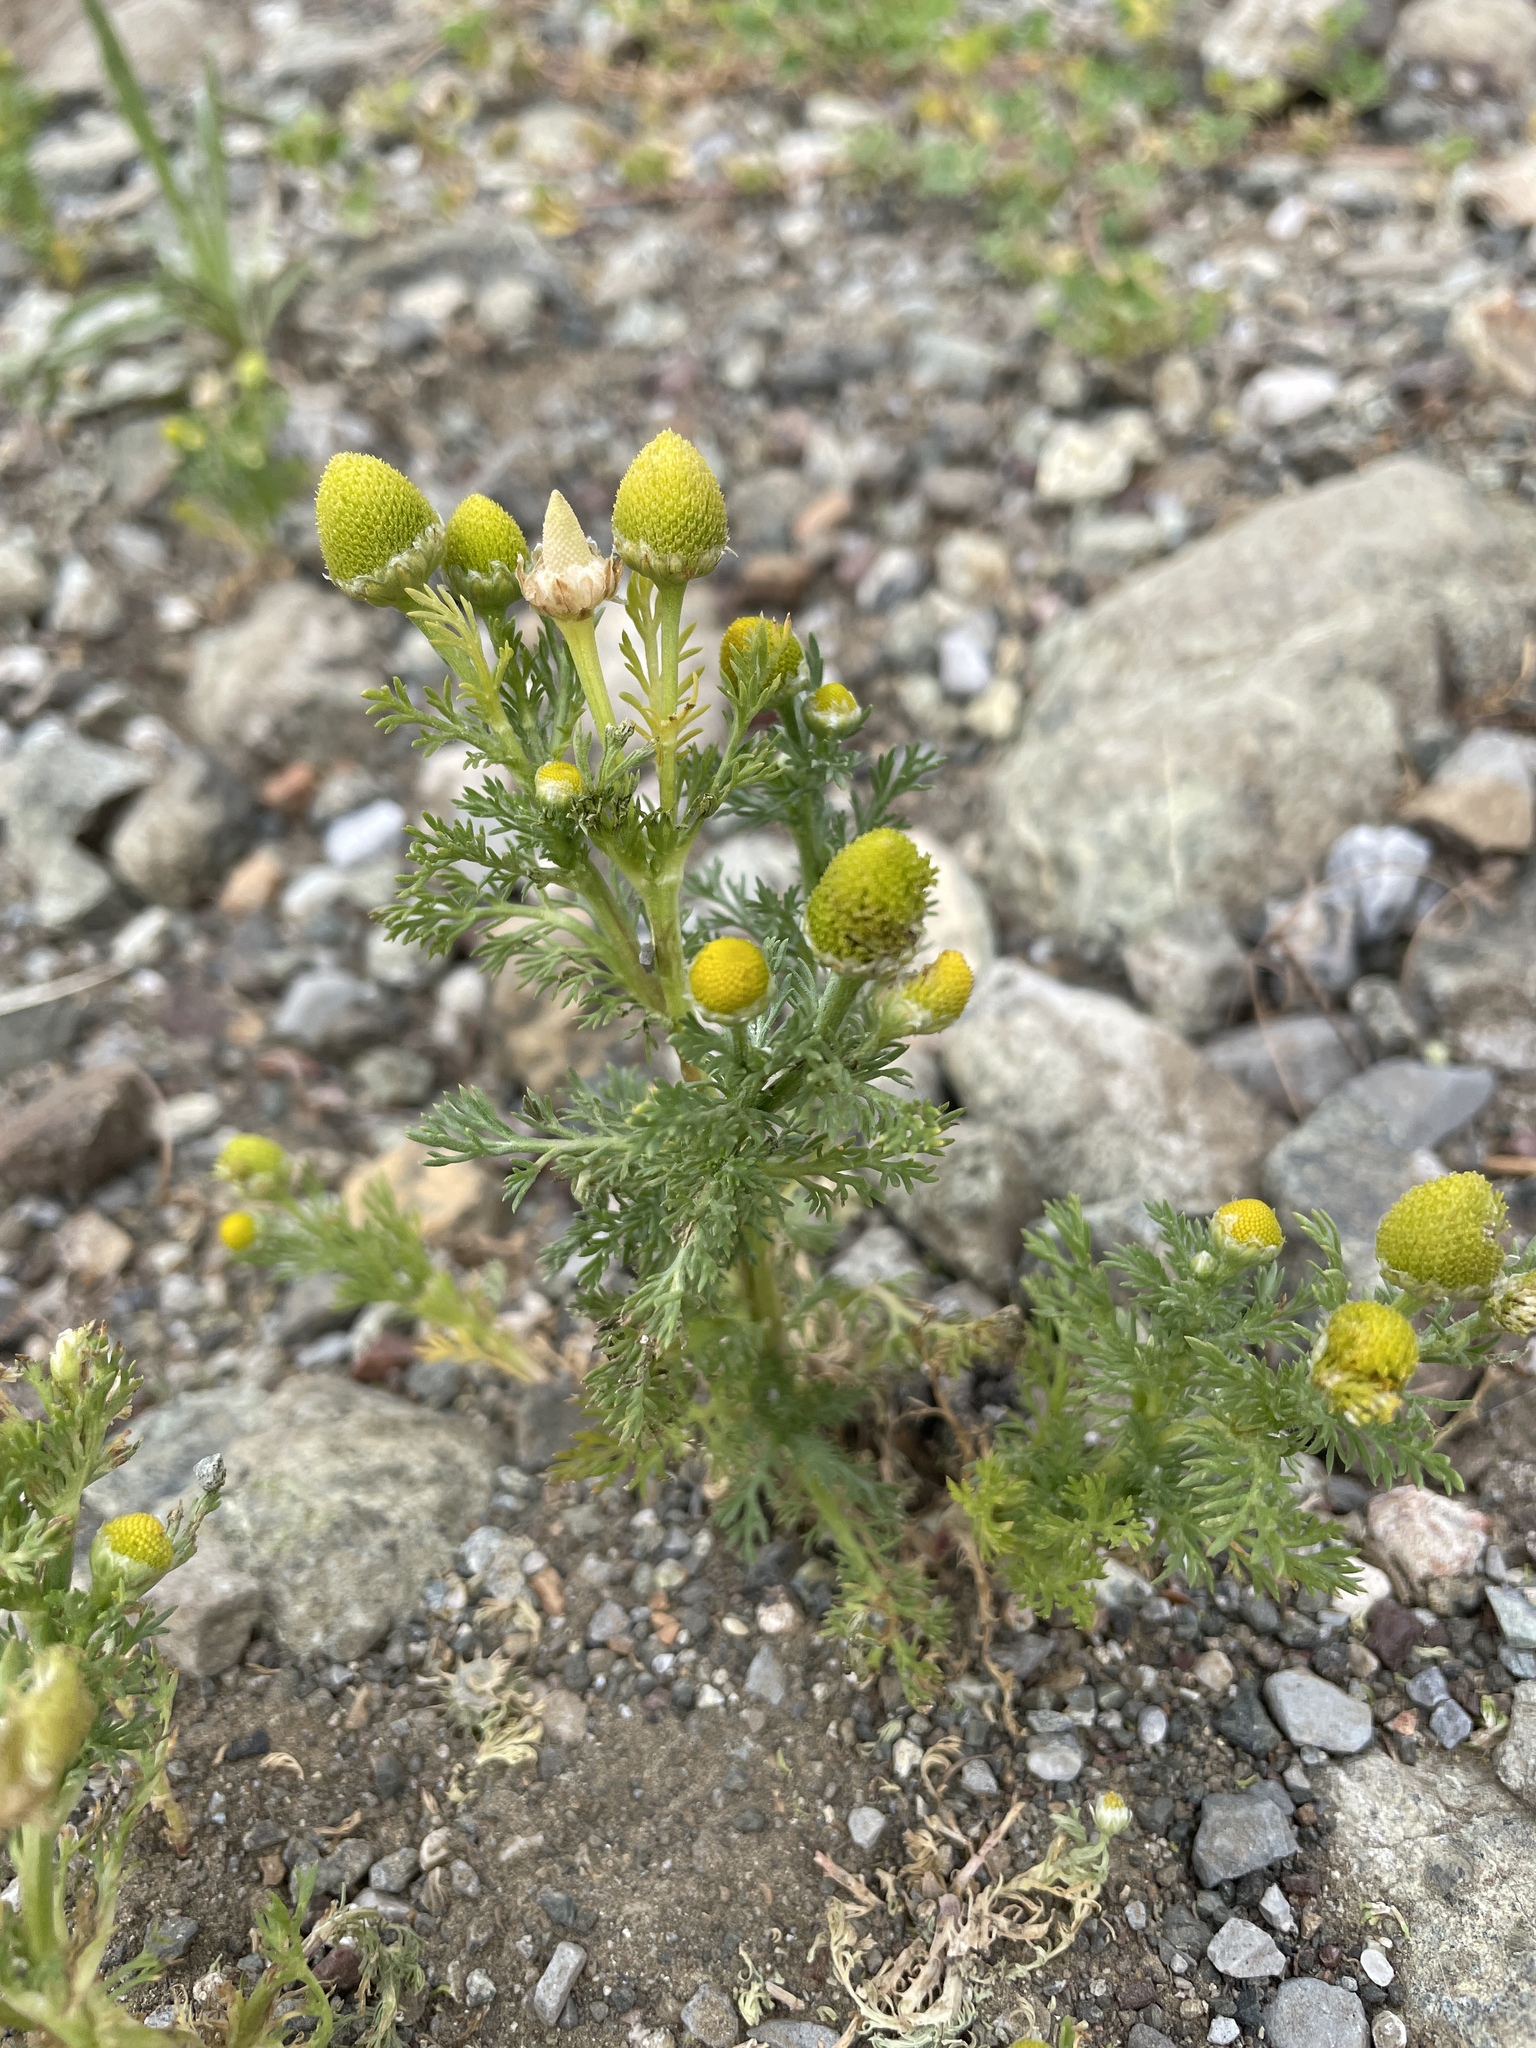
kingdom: Plantae
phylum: Tracheophyta
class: Magnoliopsida
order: Asterales
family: Asteraceae
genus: Matricaria
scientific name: Matricaria discoidea
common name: Disc mayweed
